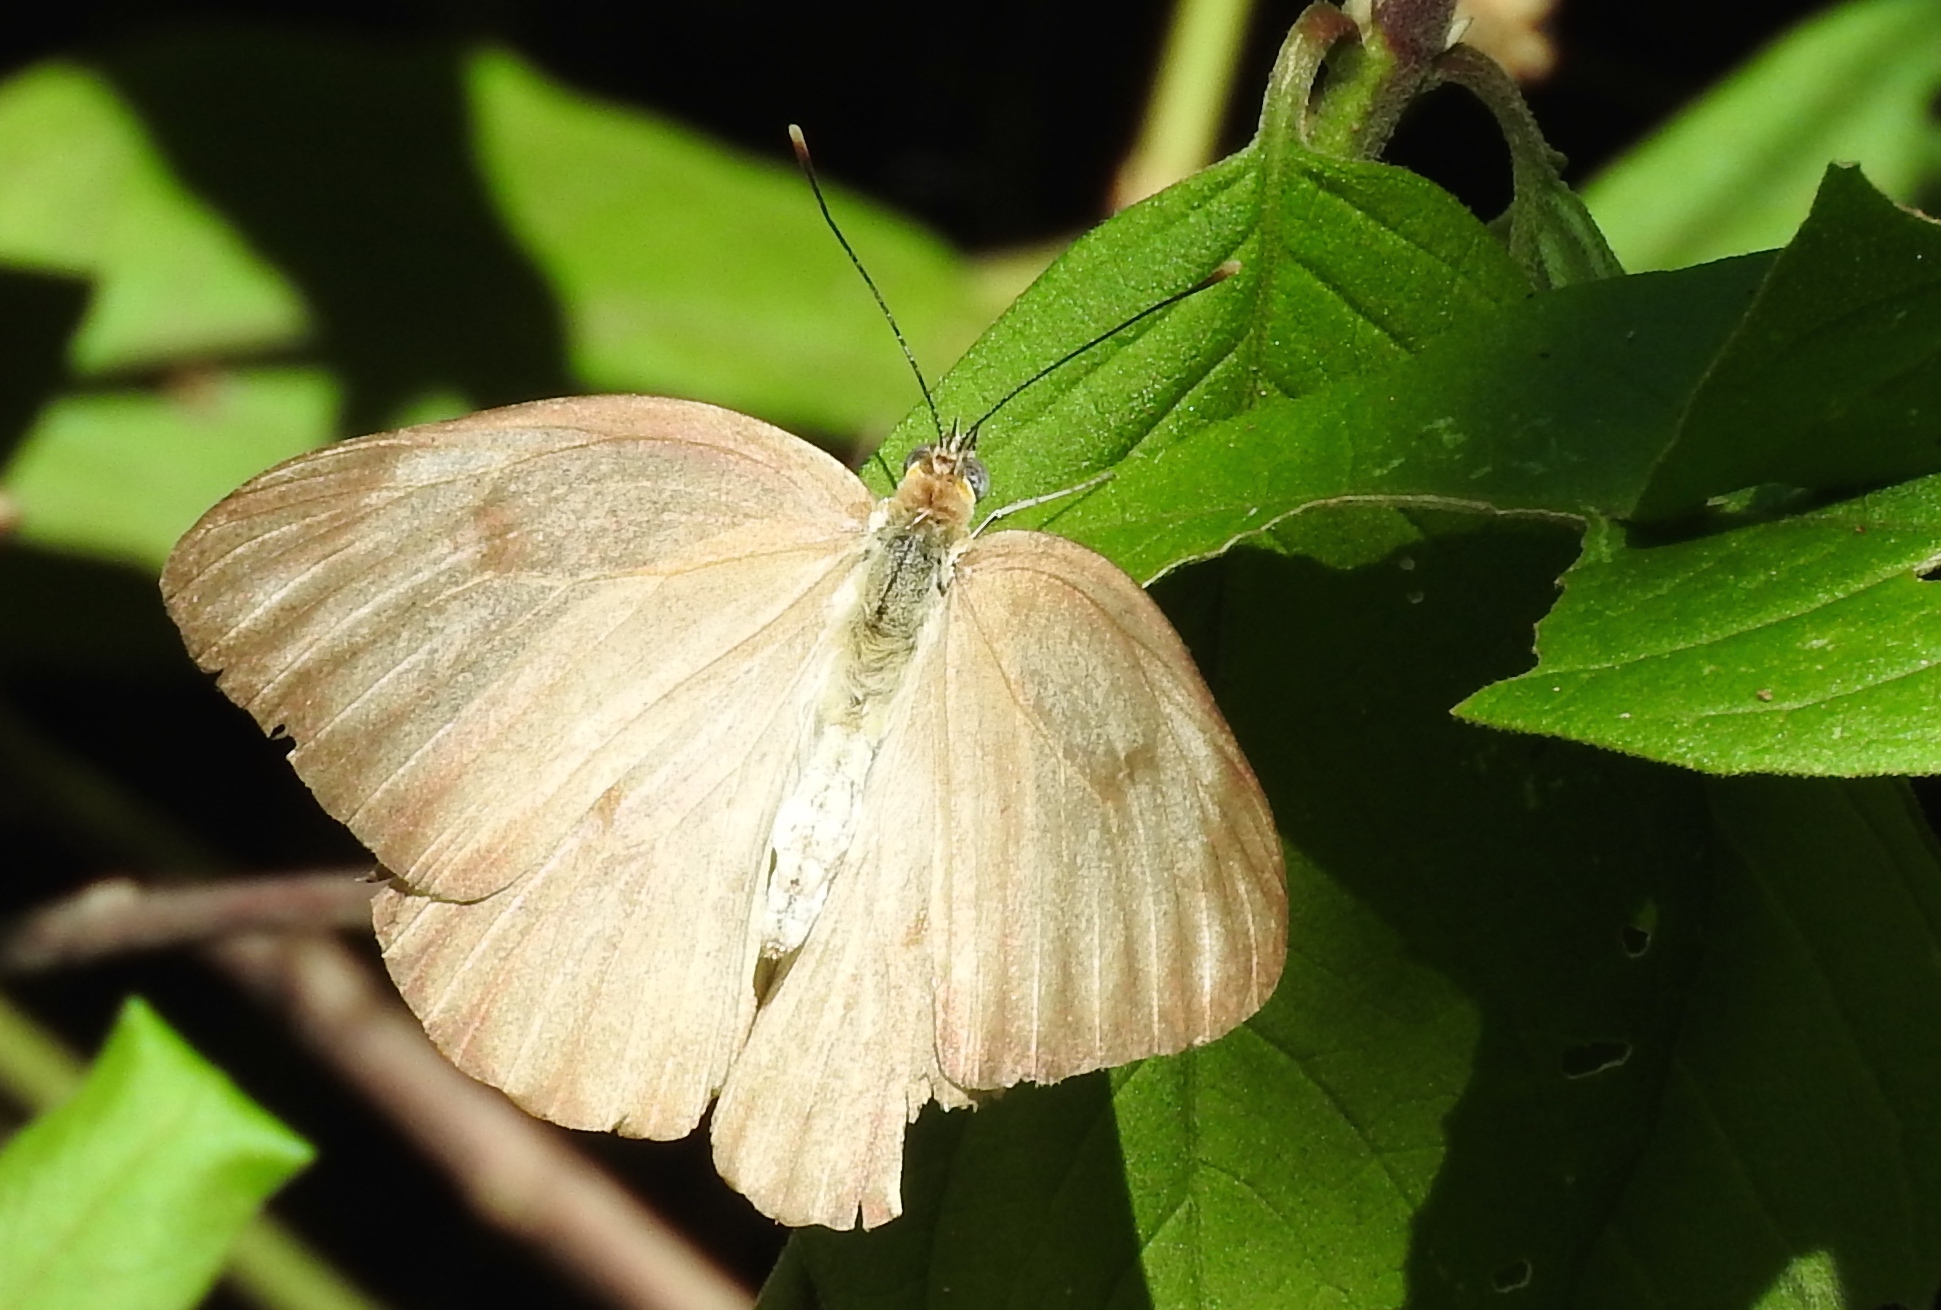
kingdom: Animalia
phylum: Arthropoda
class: Insecta
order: Lepidoptera
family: Pieridae
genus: Ascia
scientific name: Ascia monuste
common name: Great southern white
